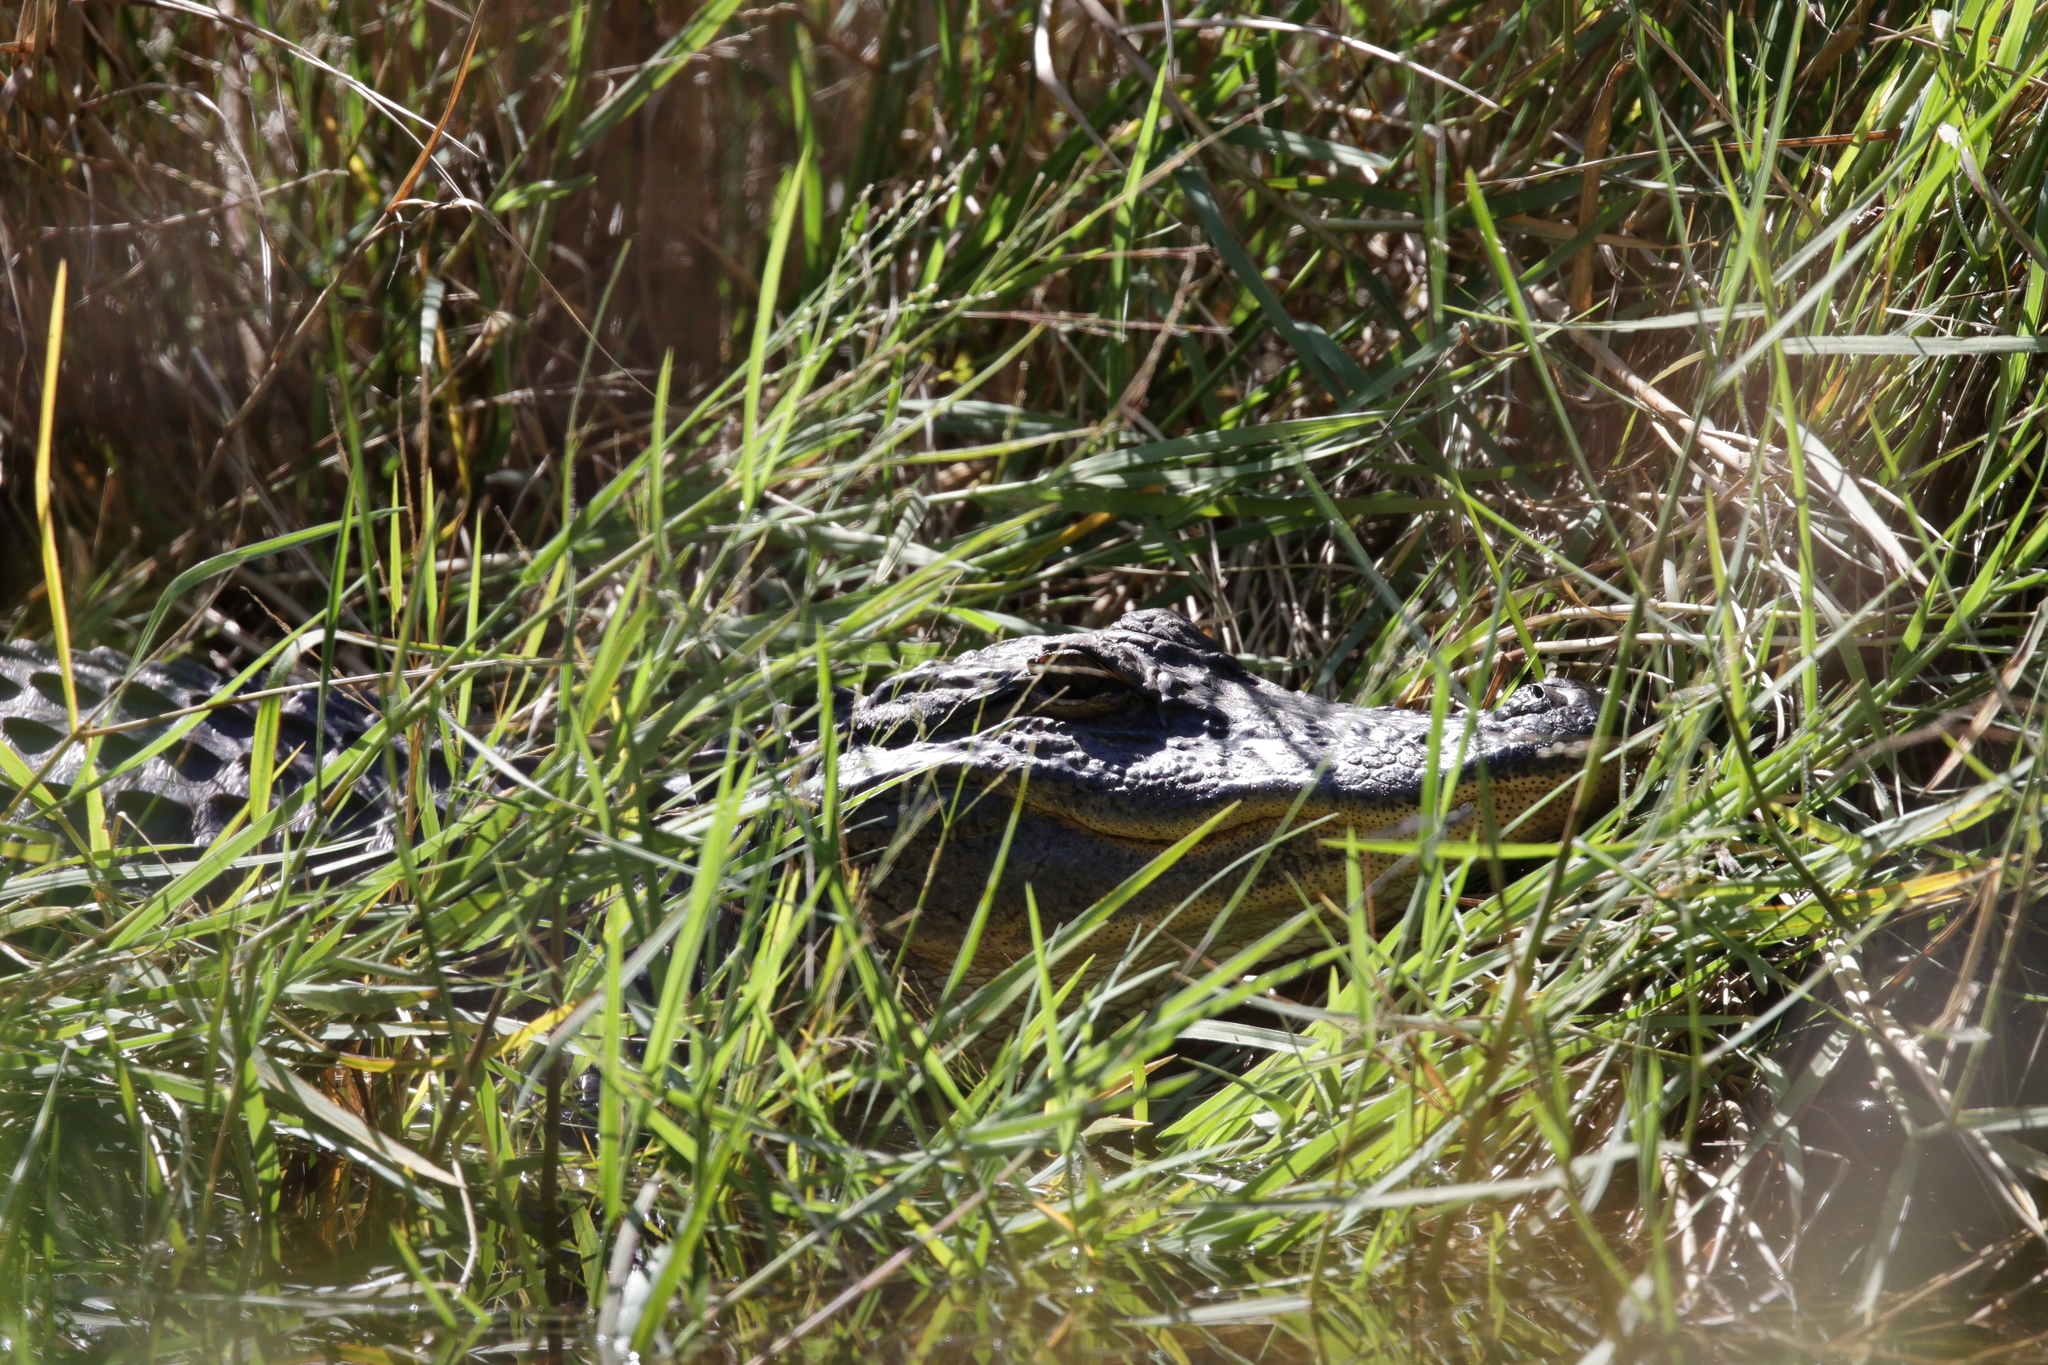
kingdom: Animalia
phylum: Chordata
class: Crocodylia
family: Alligatoridae
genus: Alligator
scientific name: Alligator mississippiensis
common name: American alligator
